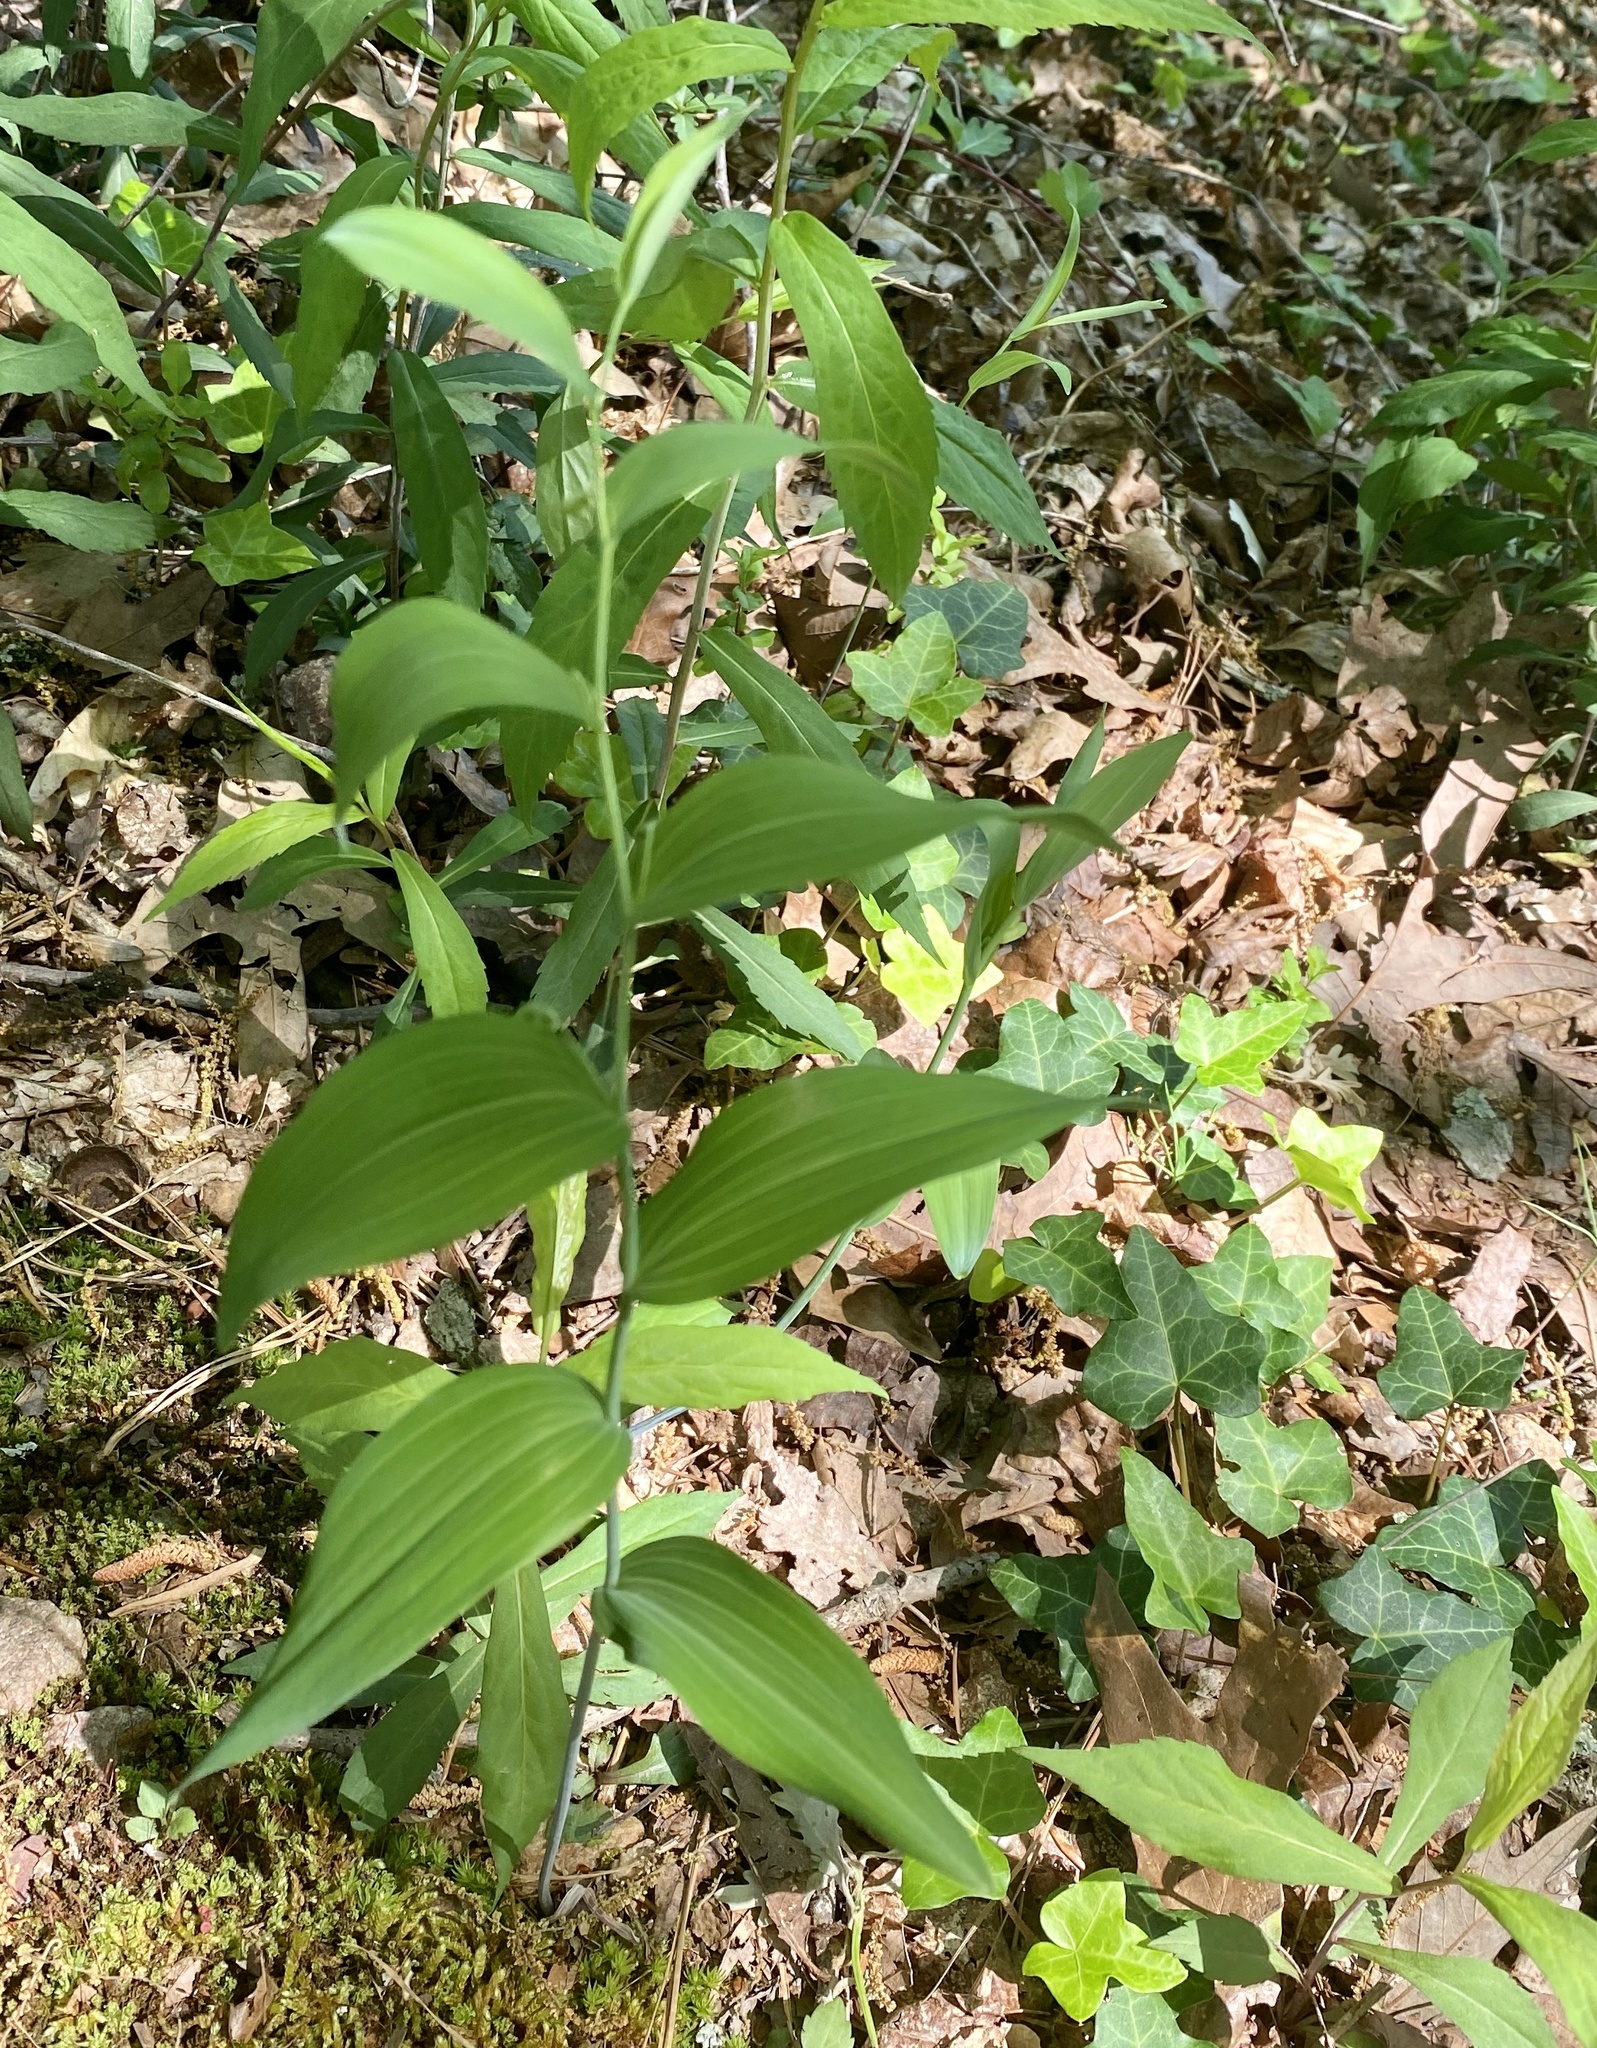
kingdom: Plantae
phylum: Tracheophyta
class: Liliopsida
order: Asparagales
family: Asparagaceae
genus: Polygonatum
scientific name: Polygonatum biflorum
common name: American solomon's-seal
